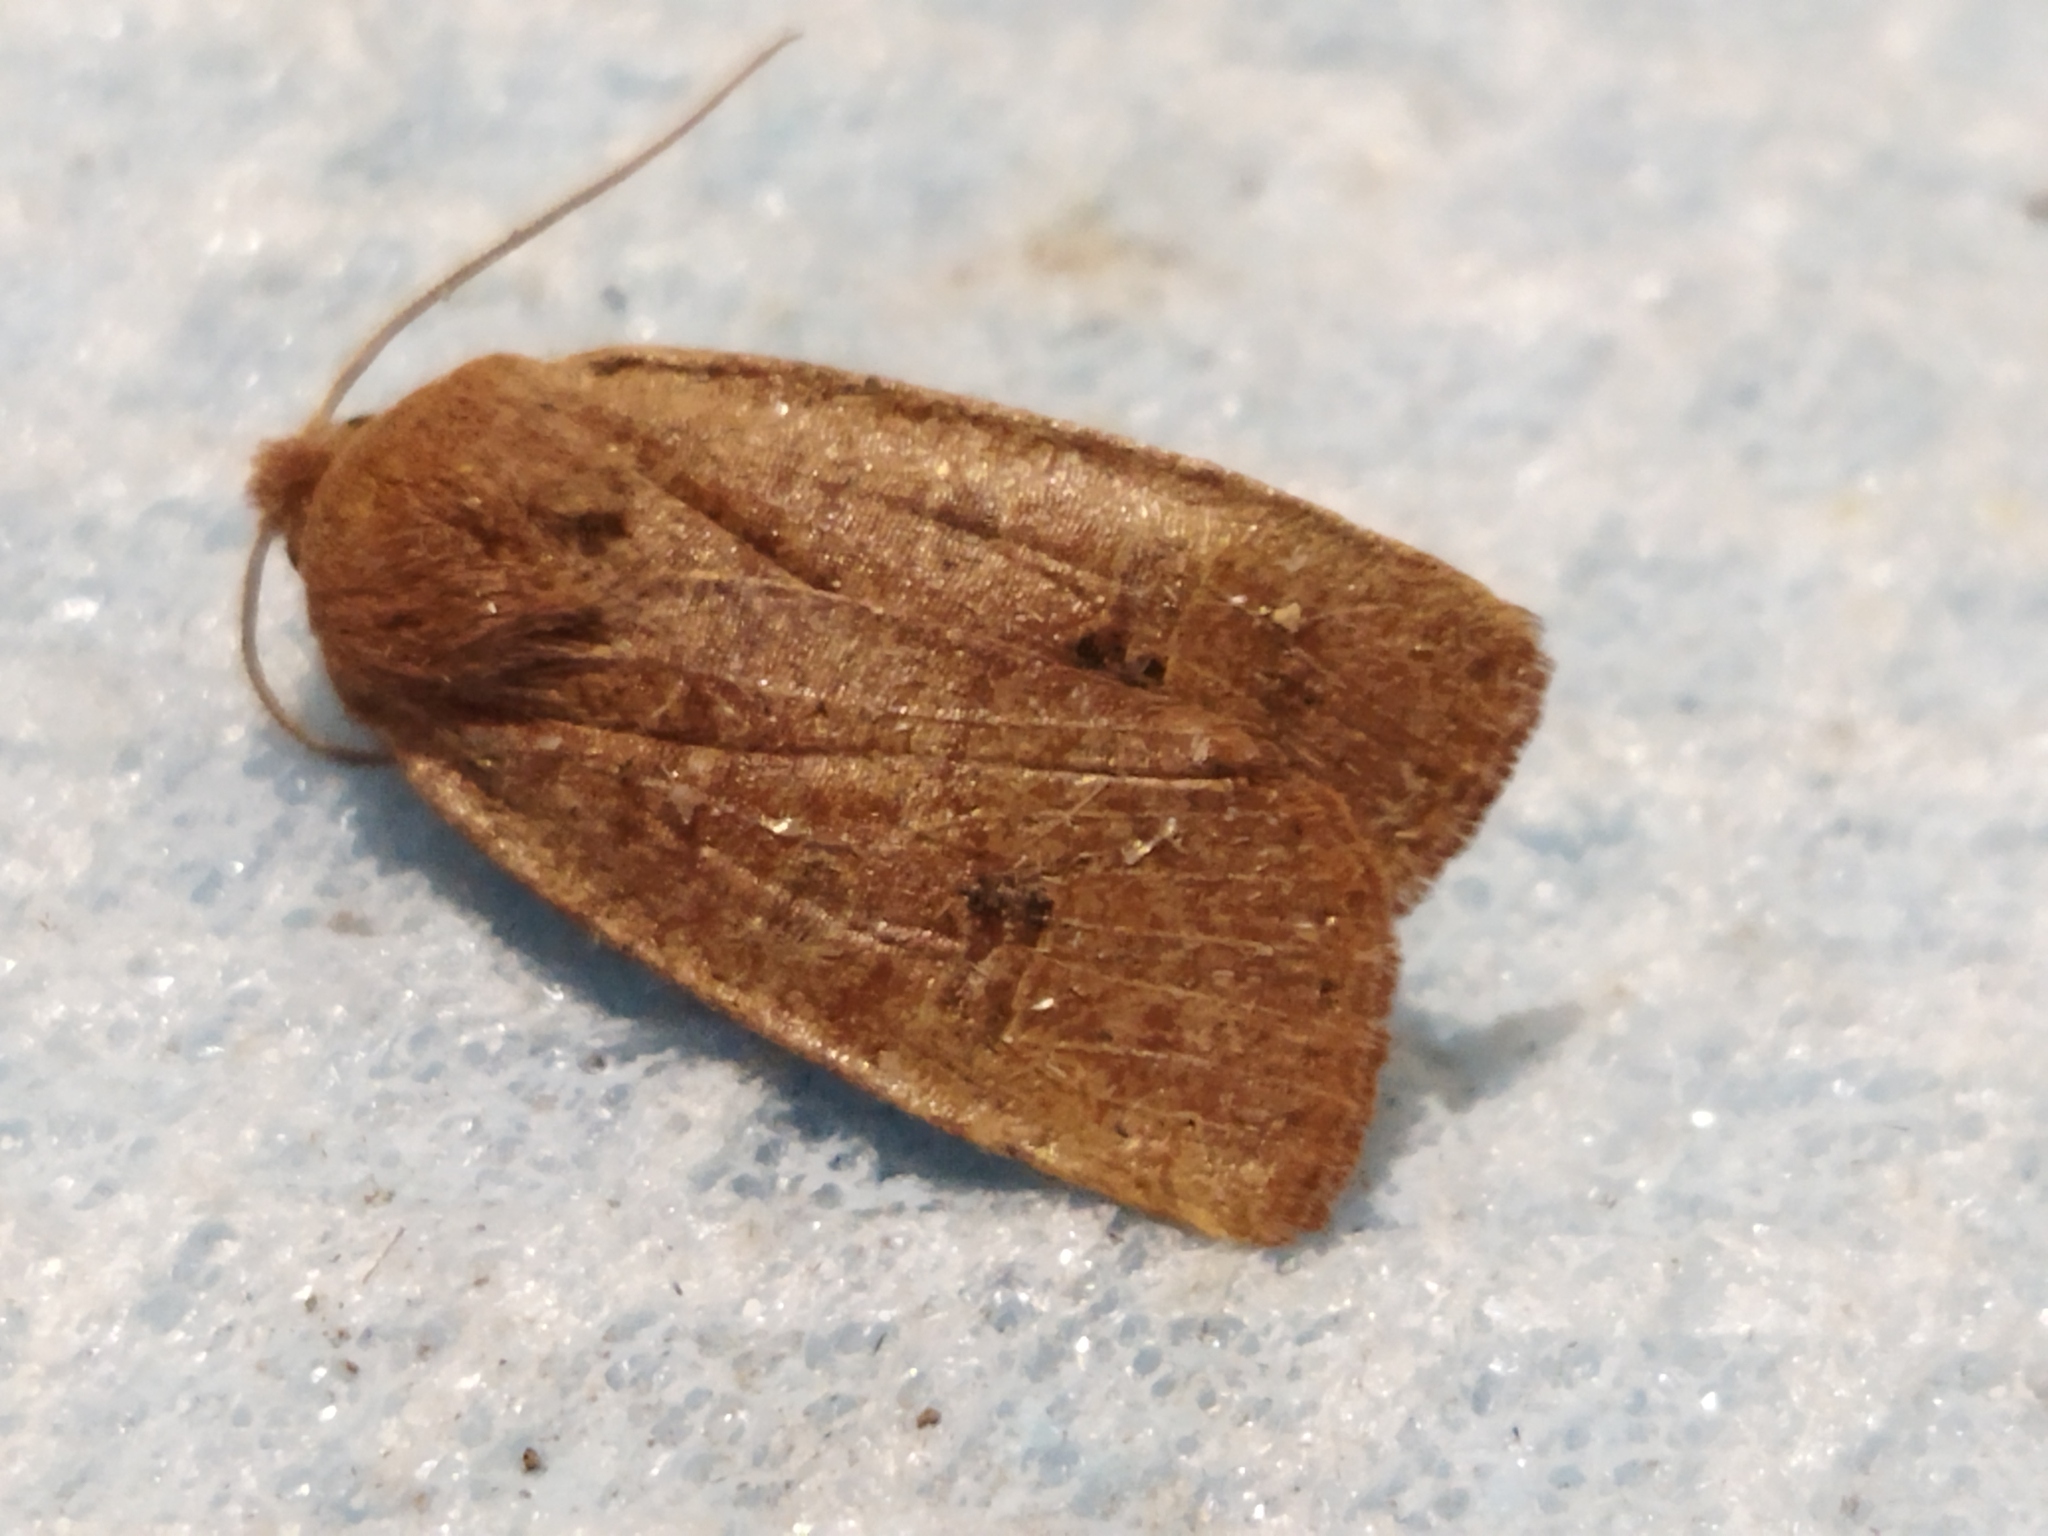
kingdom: Animalia
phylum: Arthropoda
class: Insecta
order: Lepidoptera
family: Noctuidae
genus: Conistra
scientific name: Conistra vaccinii
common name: Chestnut
